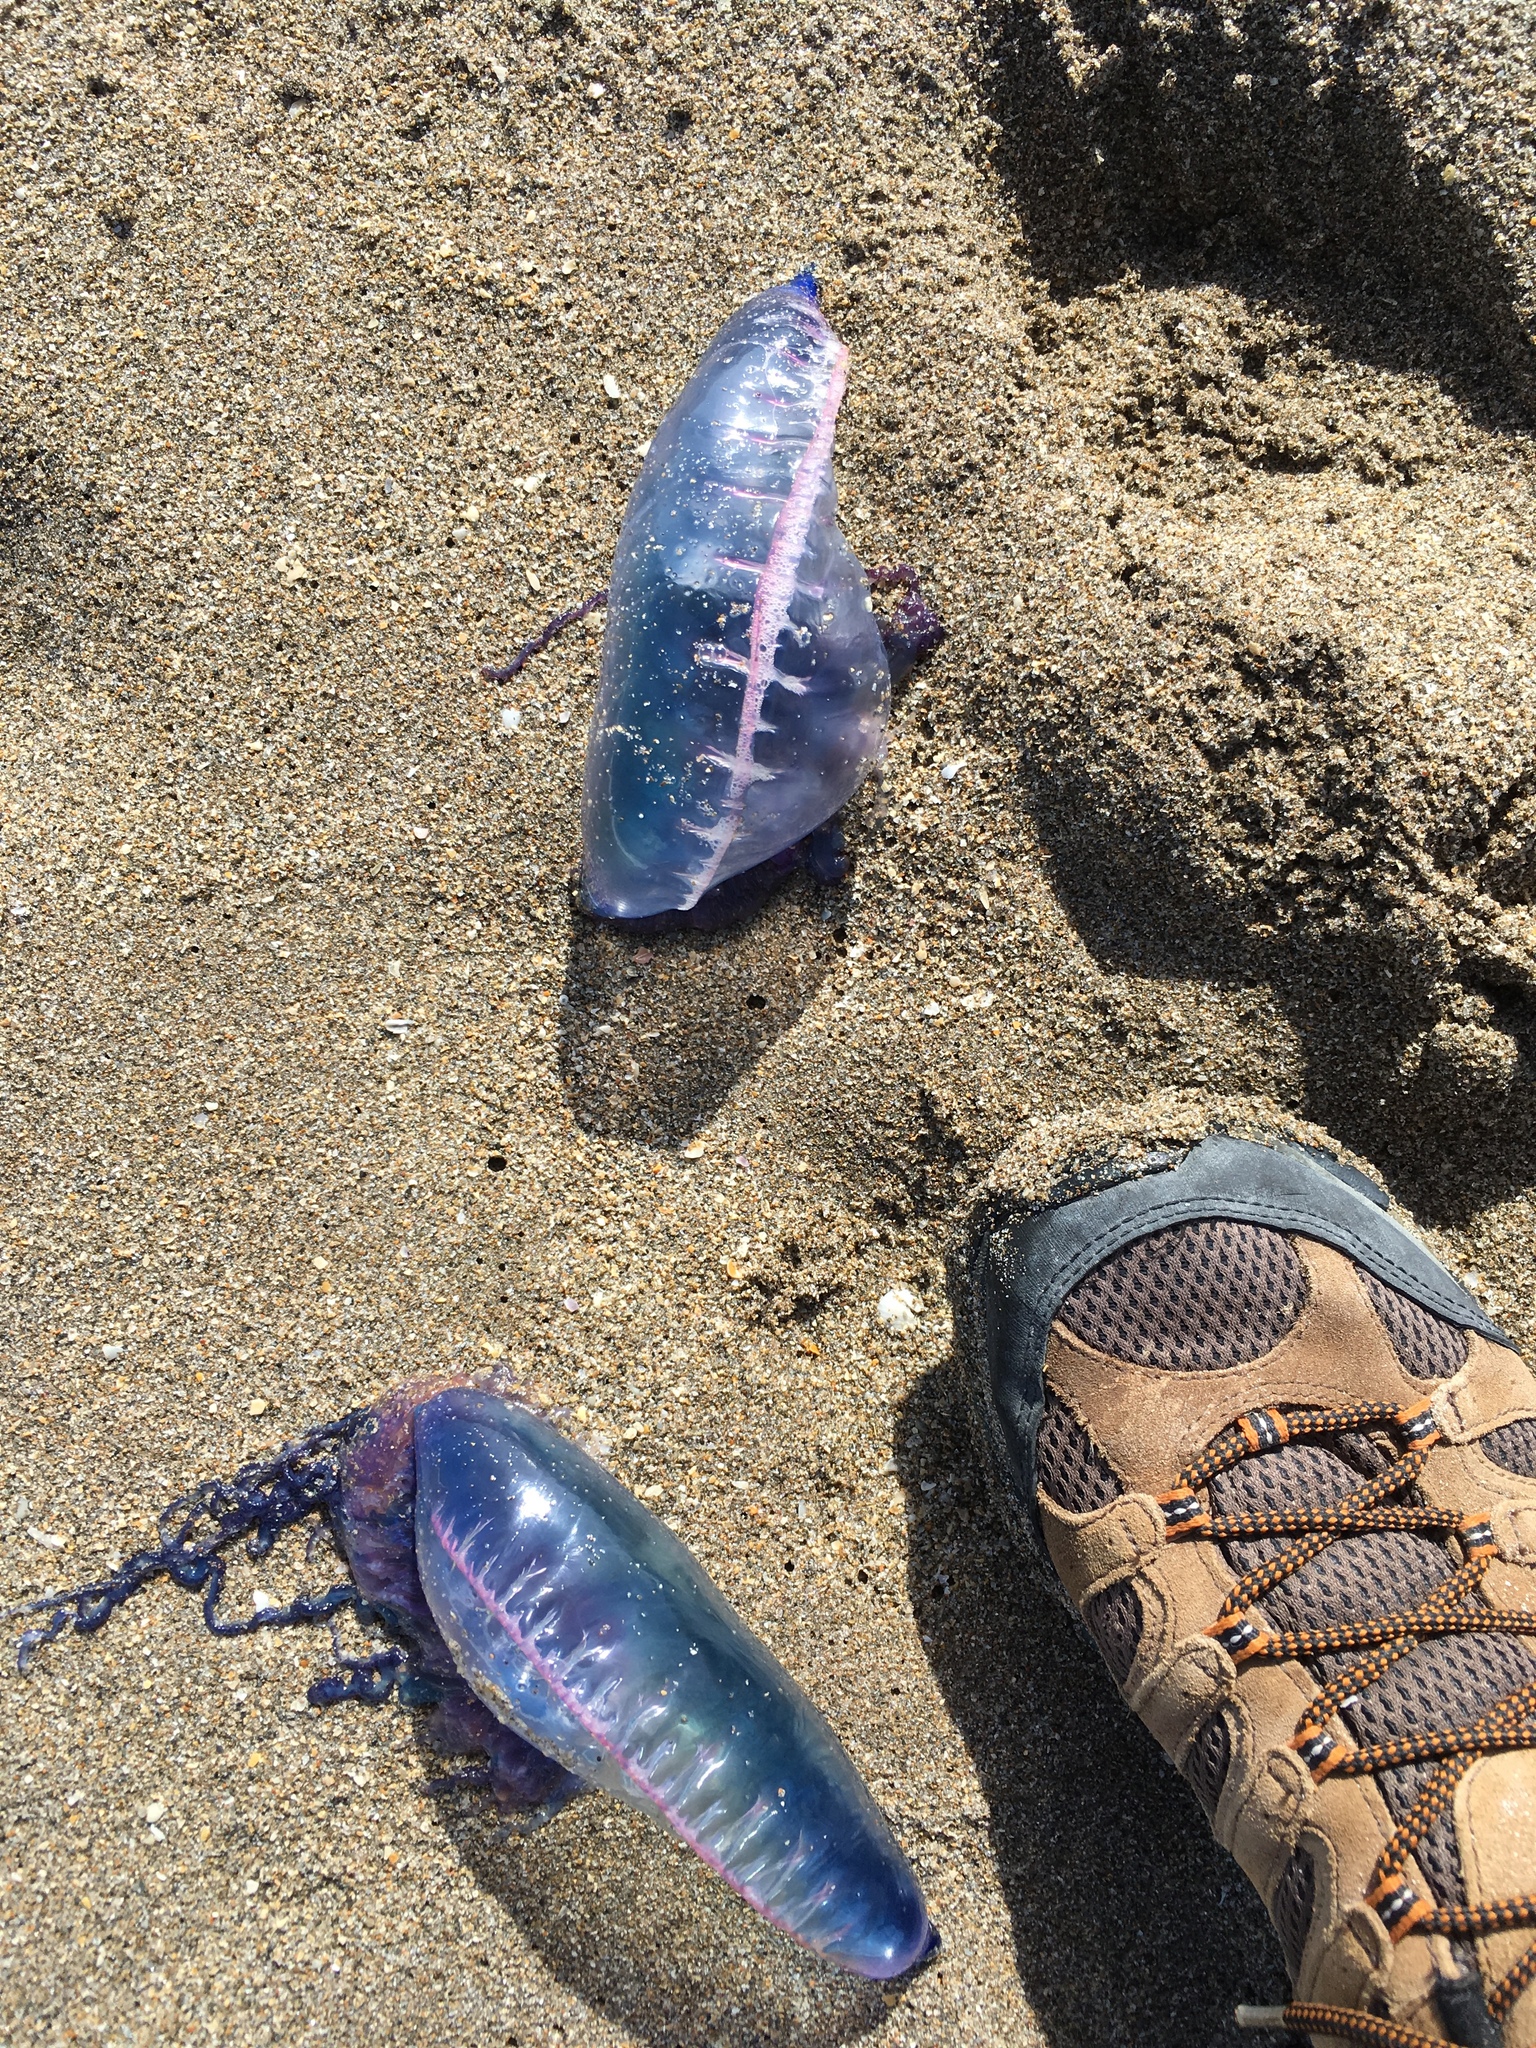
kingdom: Animalia
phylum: Cnidaria
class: Hydrozoa
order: Siphonophorae
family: Physaliidae
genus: Physalia
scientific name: Physalia physalis
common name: Portuguese man-of-war
